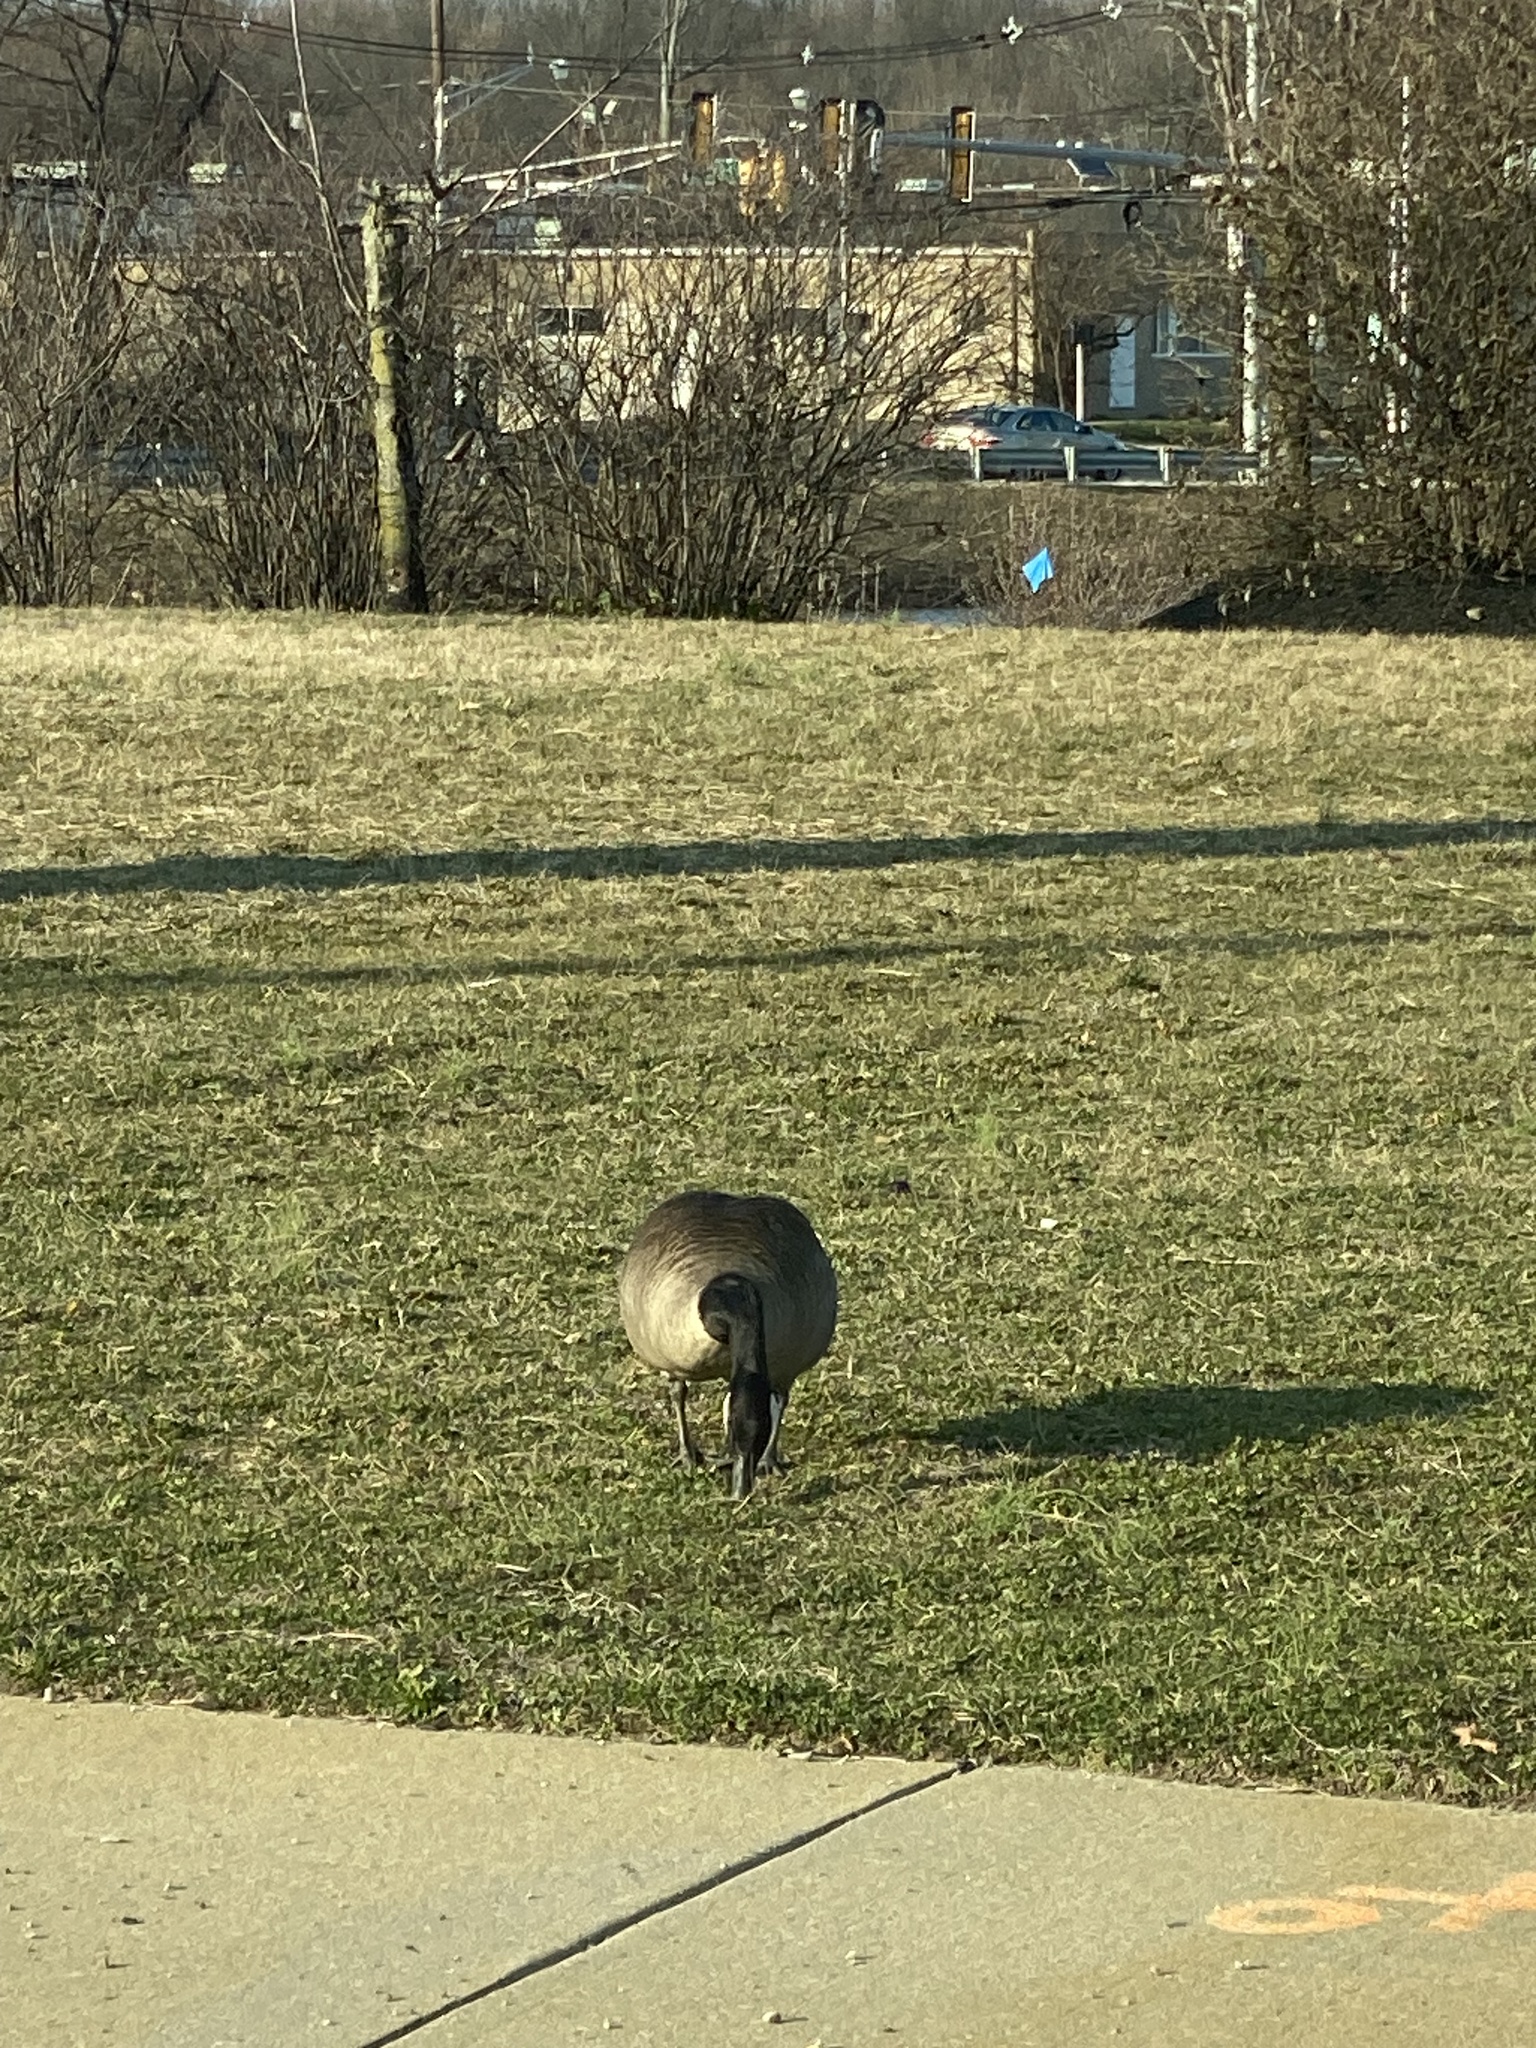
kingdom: Animalia
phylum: Chordata
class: Aves
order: Anseriformes
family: Anatidae
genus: Branta
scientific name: Branta canadensis
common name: Canada goose
